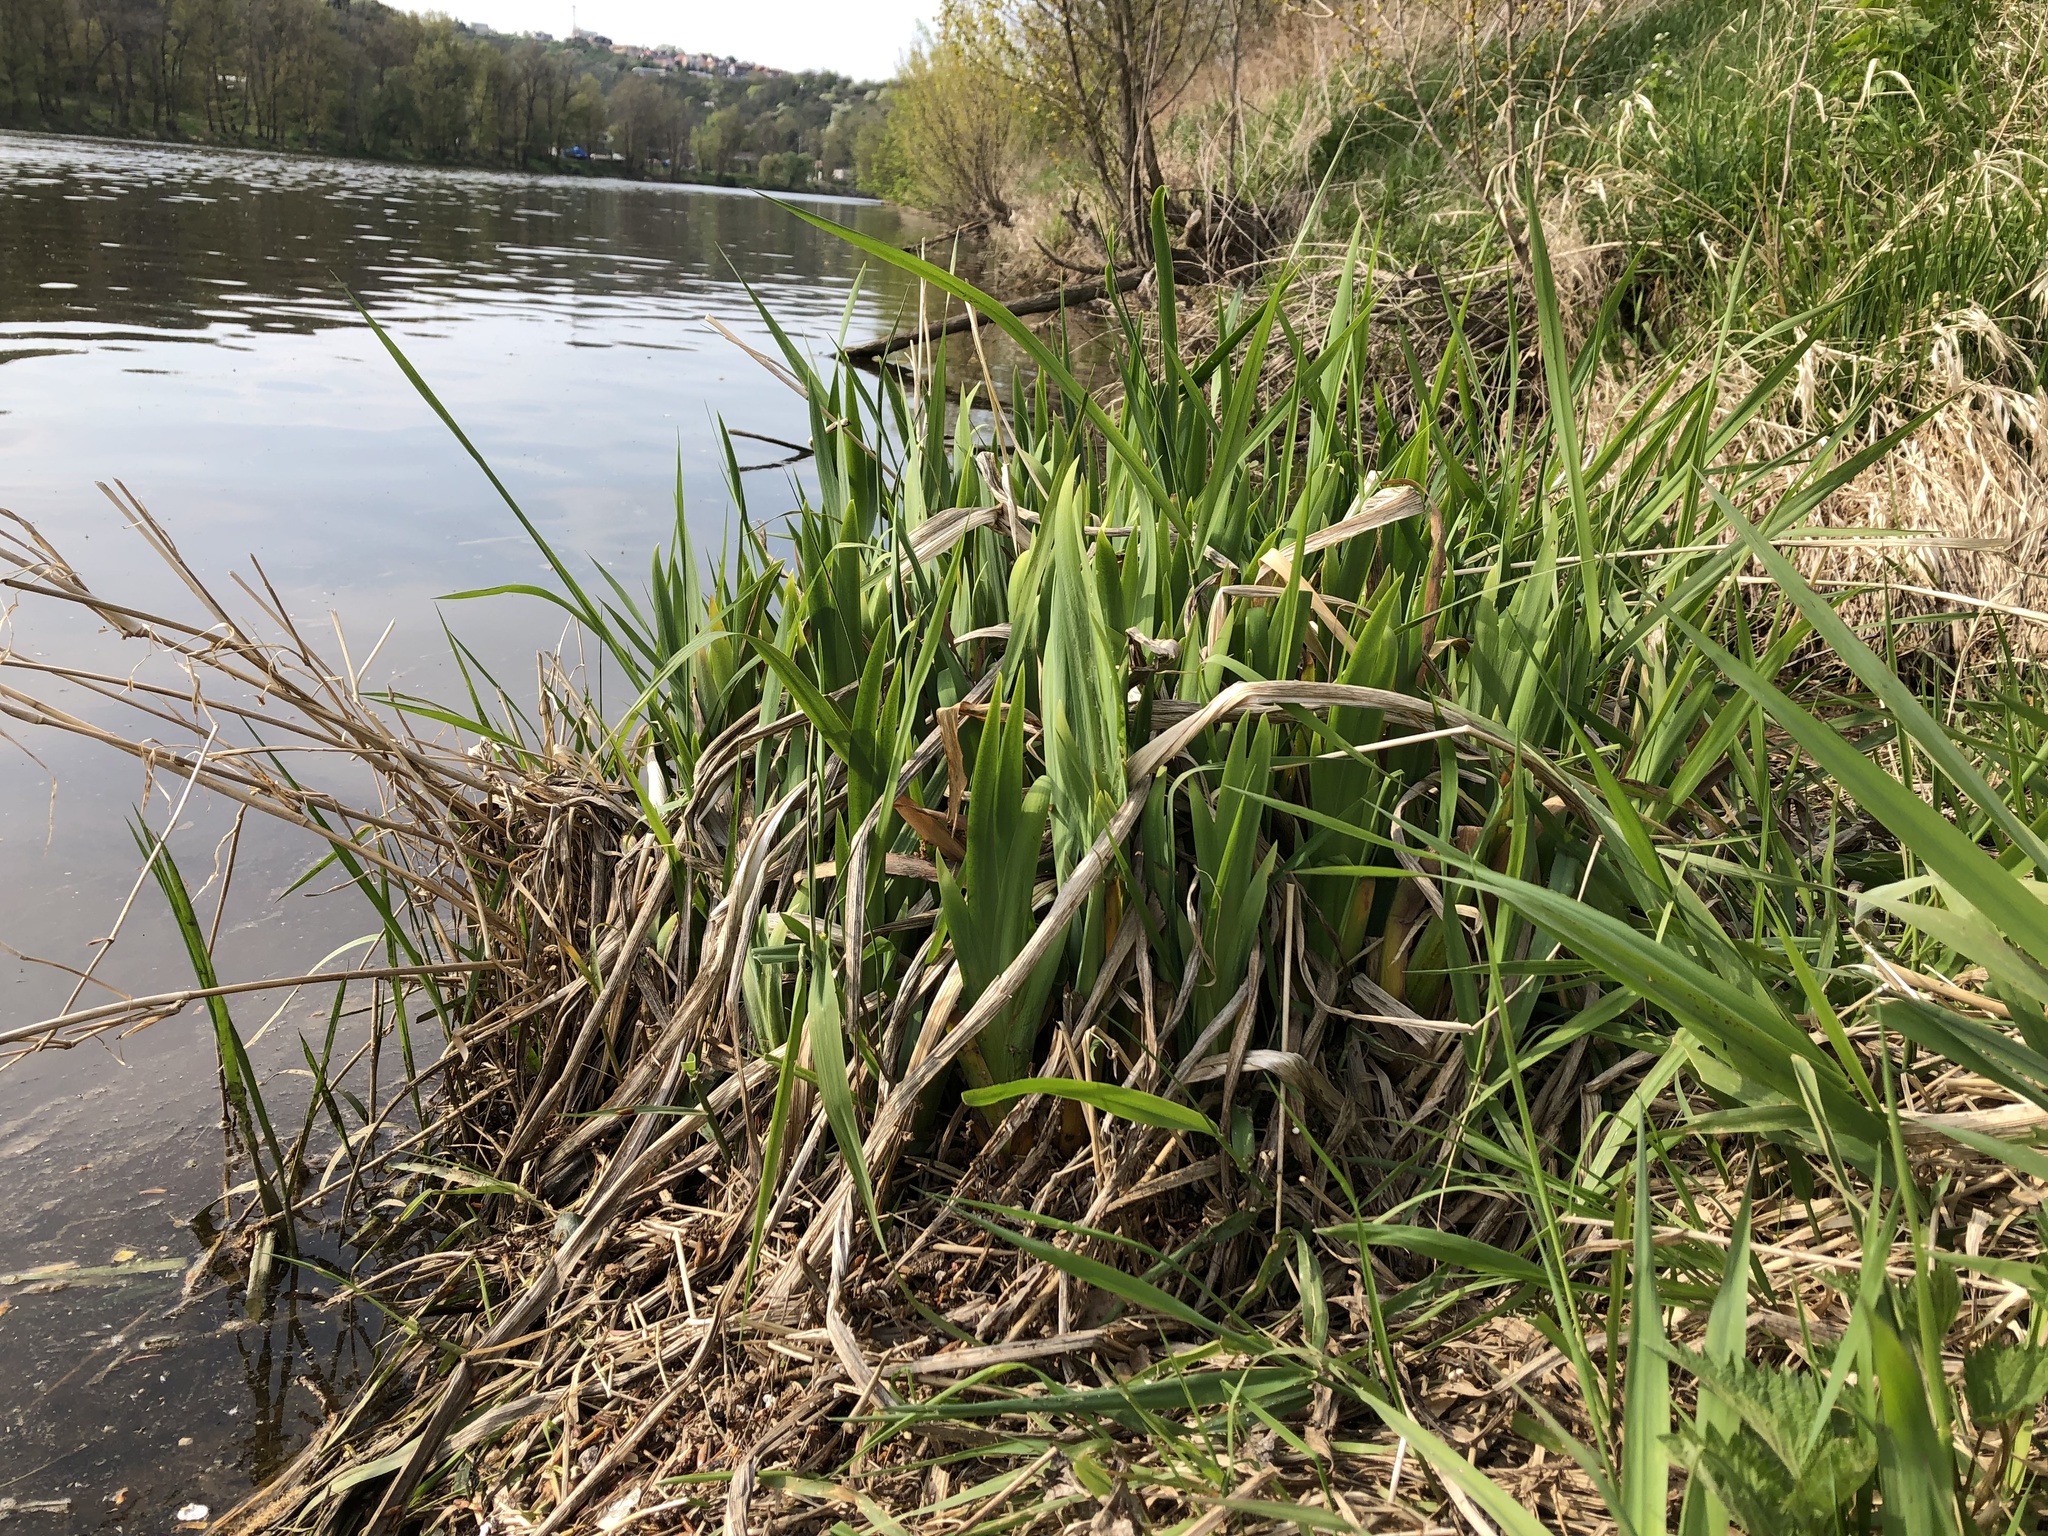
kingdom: Plantae
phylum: Tracheophyta
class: Liliopsida
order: Asparagales
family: Iridaceae
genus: Iris
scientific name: Iris pseudacorus
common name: Yellow flag
